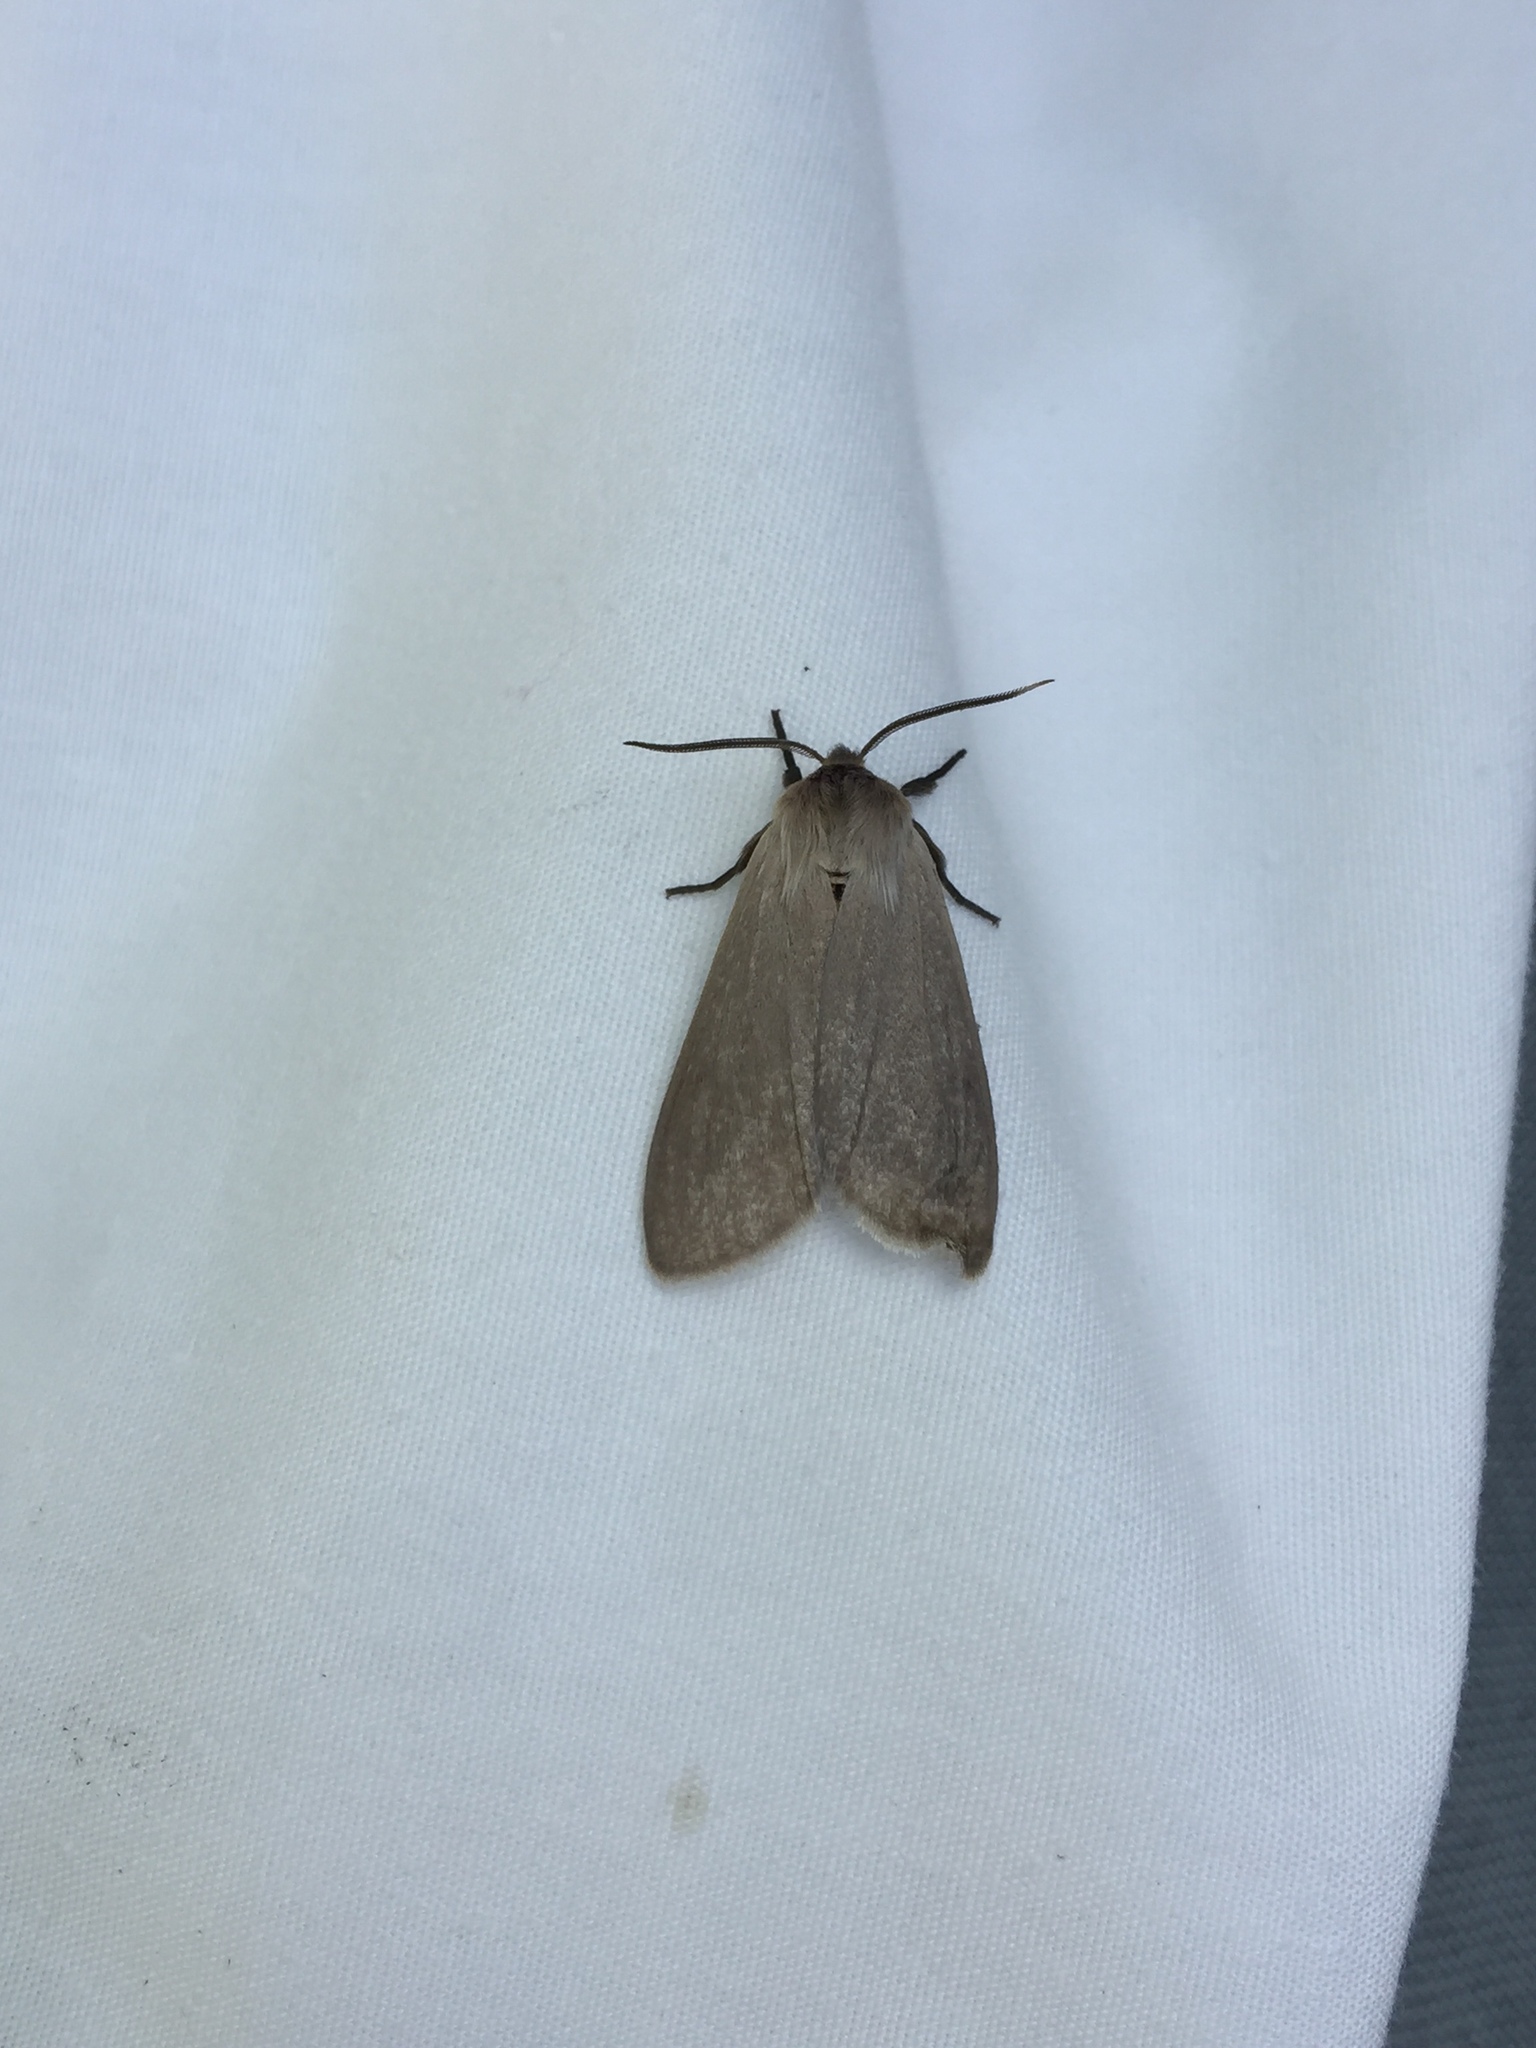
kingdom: Animalia
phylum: Arthropoda
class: Insecta
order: Lepidoptera
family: Erebidae
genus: Euchaetes
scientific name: Euchaetes egle
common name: Milkweed tussock moth
